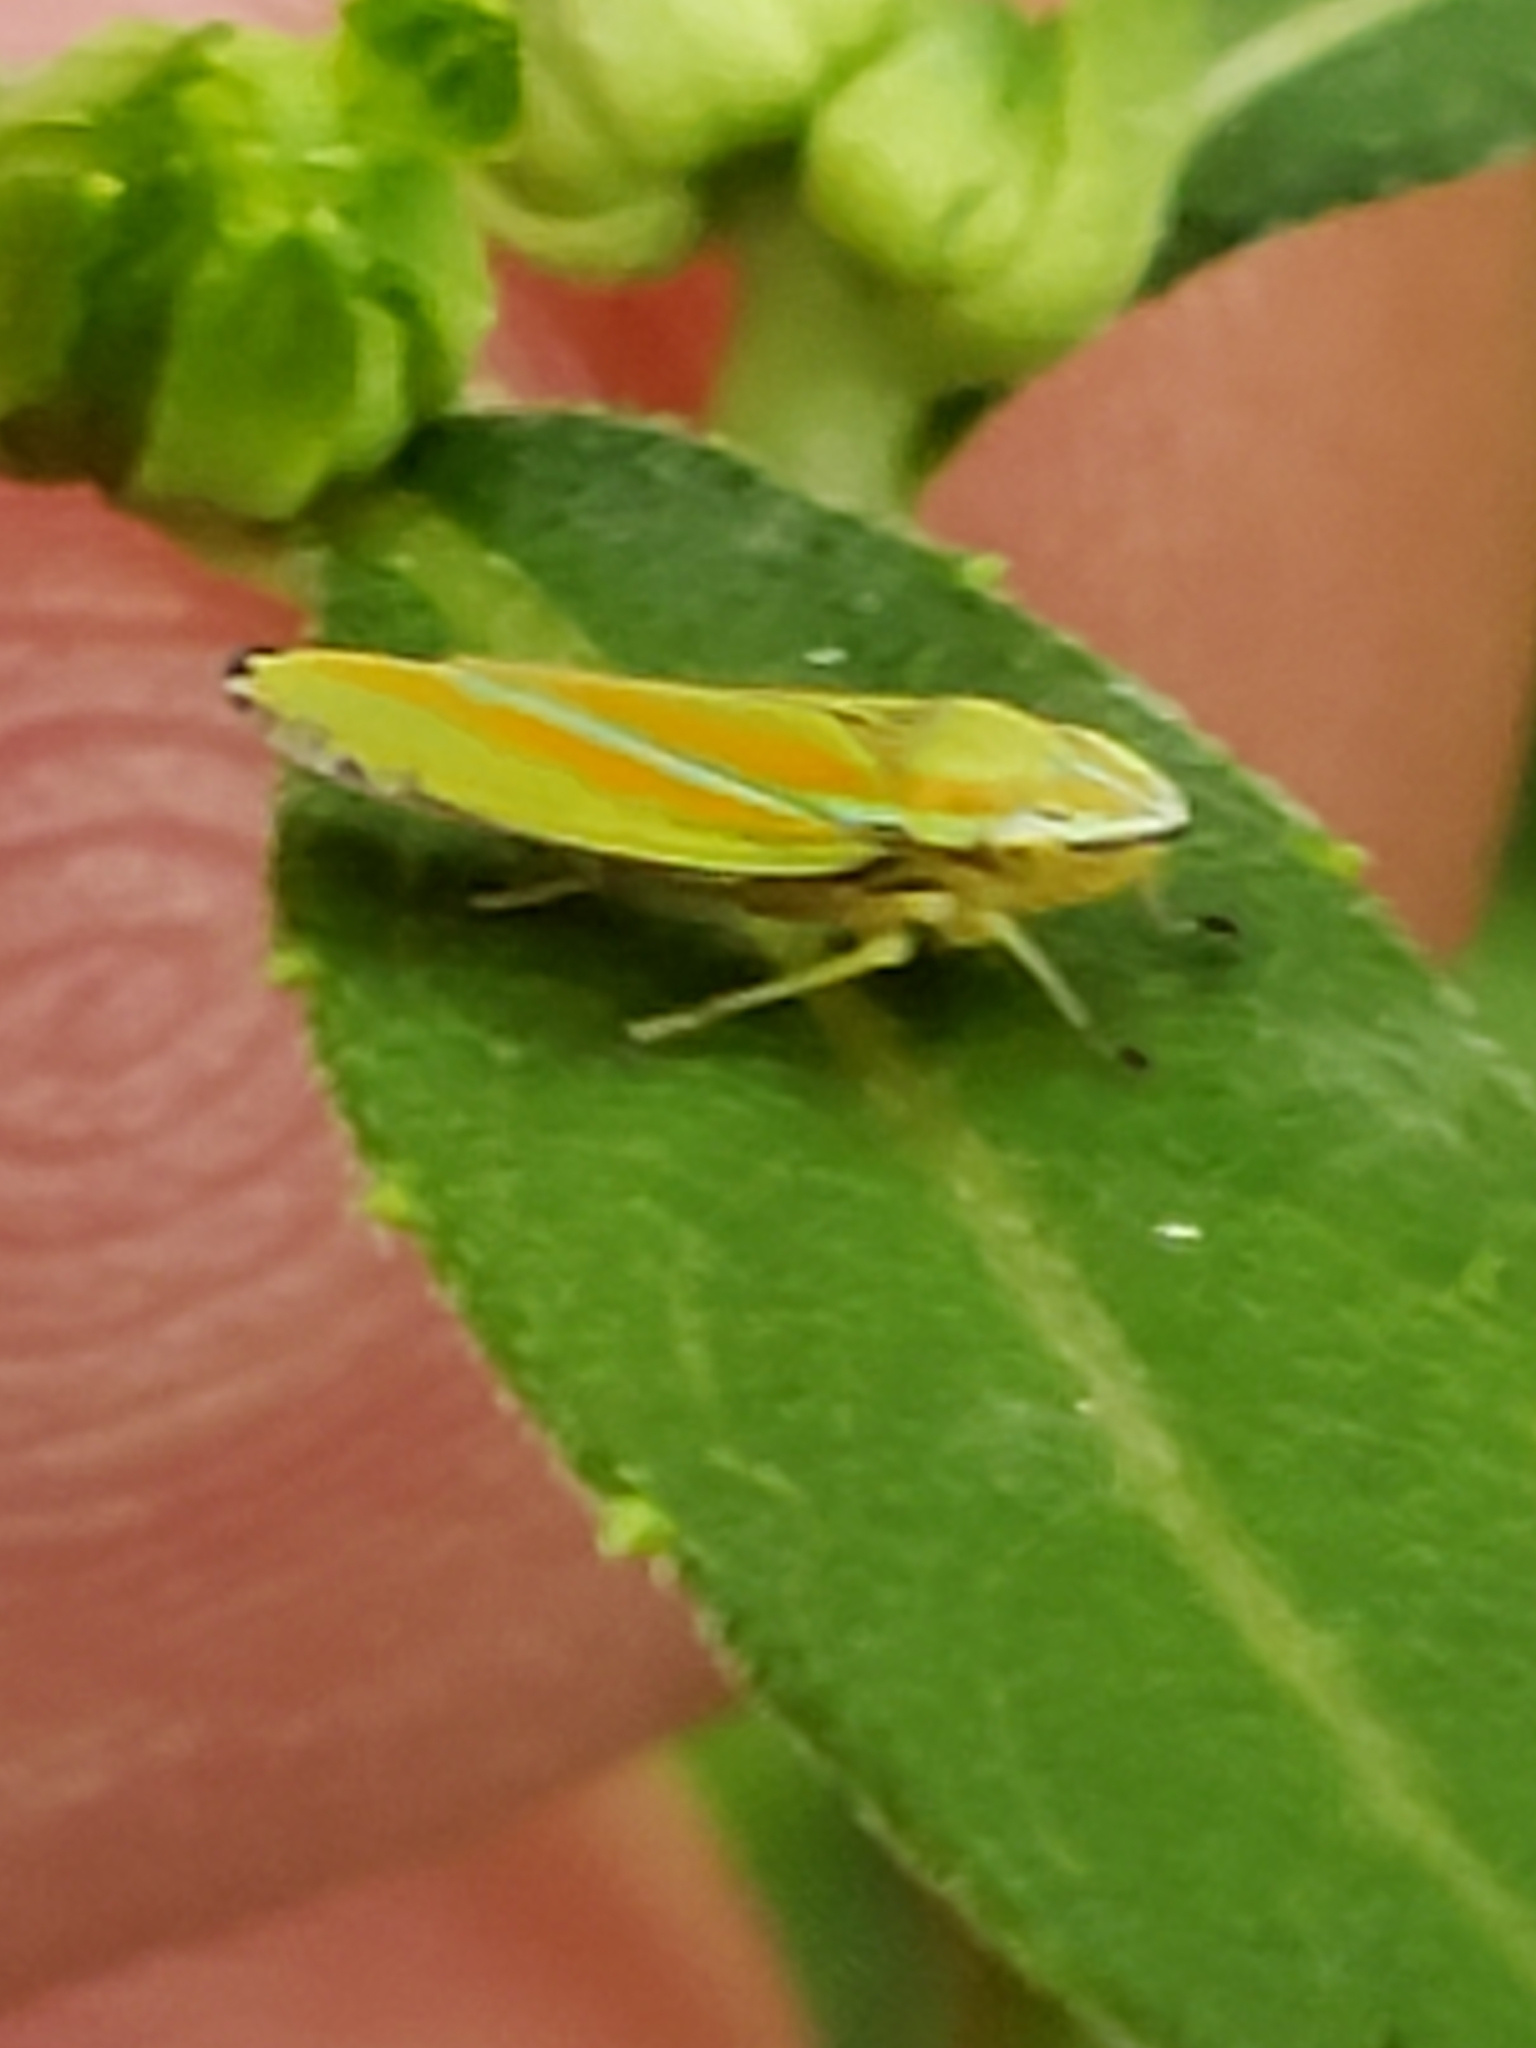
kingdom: Animalia
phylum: Arthropoda
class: Insecta
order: Hemiptera
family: Cicadellidae
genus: Graphocephala
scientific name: Graphocephala versuta
